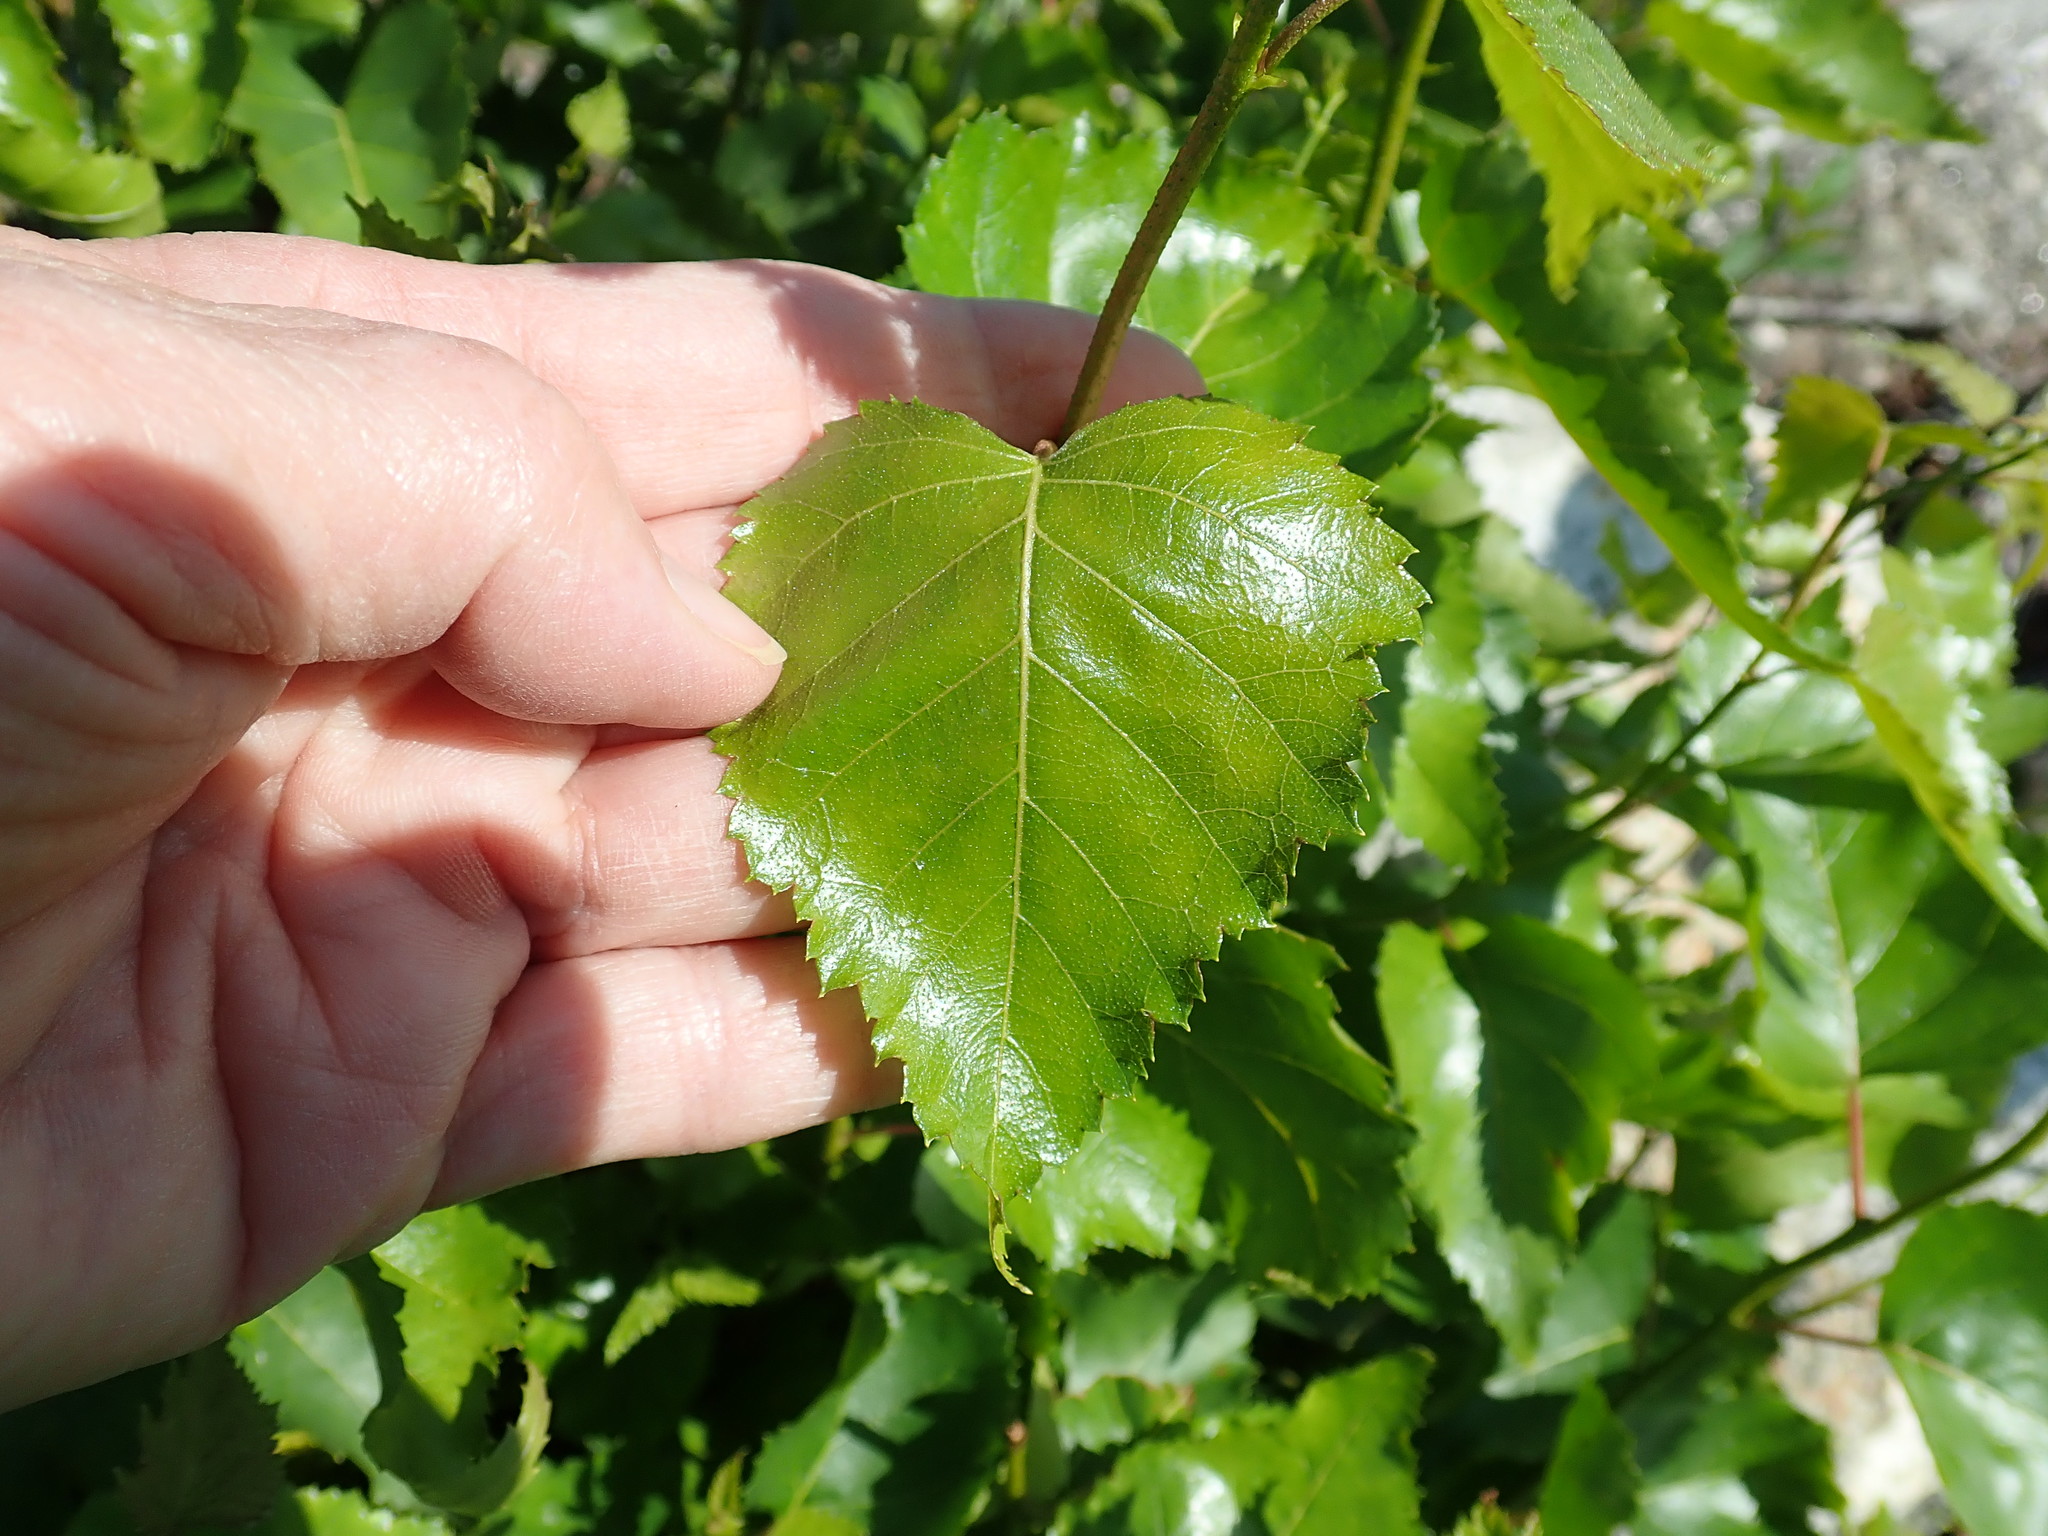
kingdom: Plantae
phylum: Tracheophyta
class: Magnoliopsida
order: Fagales
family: Betulaceae
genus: Betula
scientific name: Betula populifolia
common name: Fire birch
